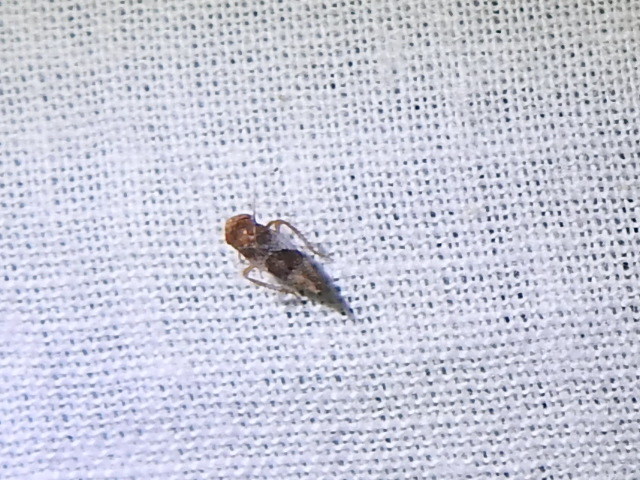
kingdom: Animalia
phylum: Arthropoda
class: Insecta
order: Hemiptera
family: Cicadellidae
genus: Norvellina
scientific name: Norvellina helenae
